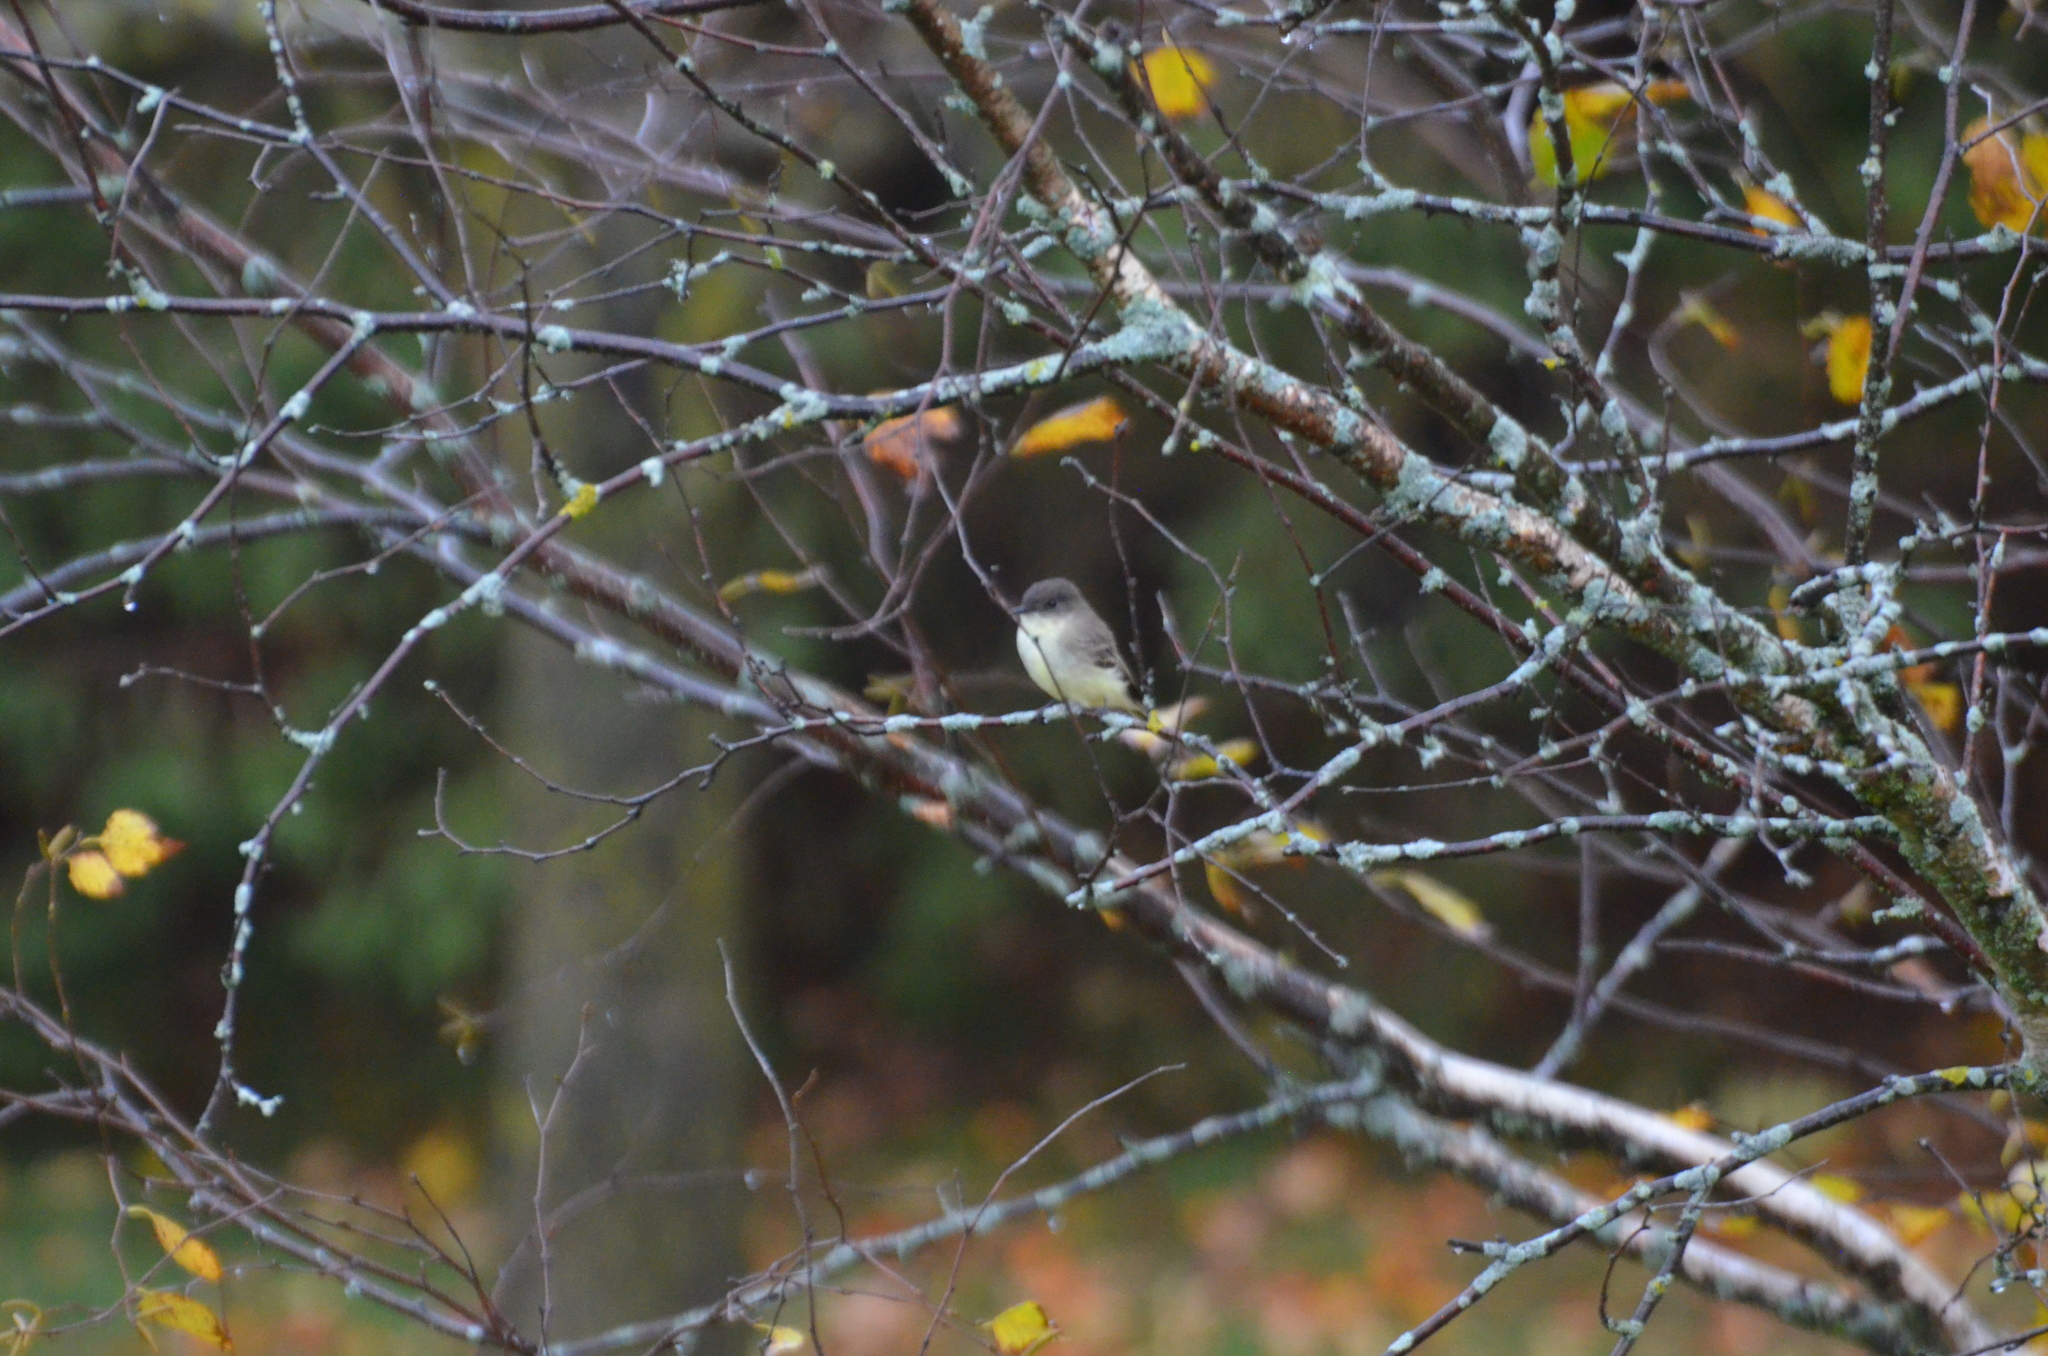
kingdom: Animalia
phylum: Chordata
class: Aves
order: Passeriformes
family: Tyrannidae
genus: Sayornis
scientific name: Sayornis phoebe
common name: Eastern phoebe
